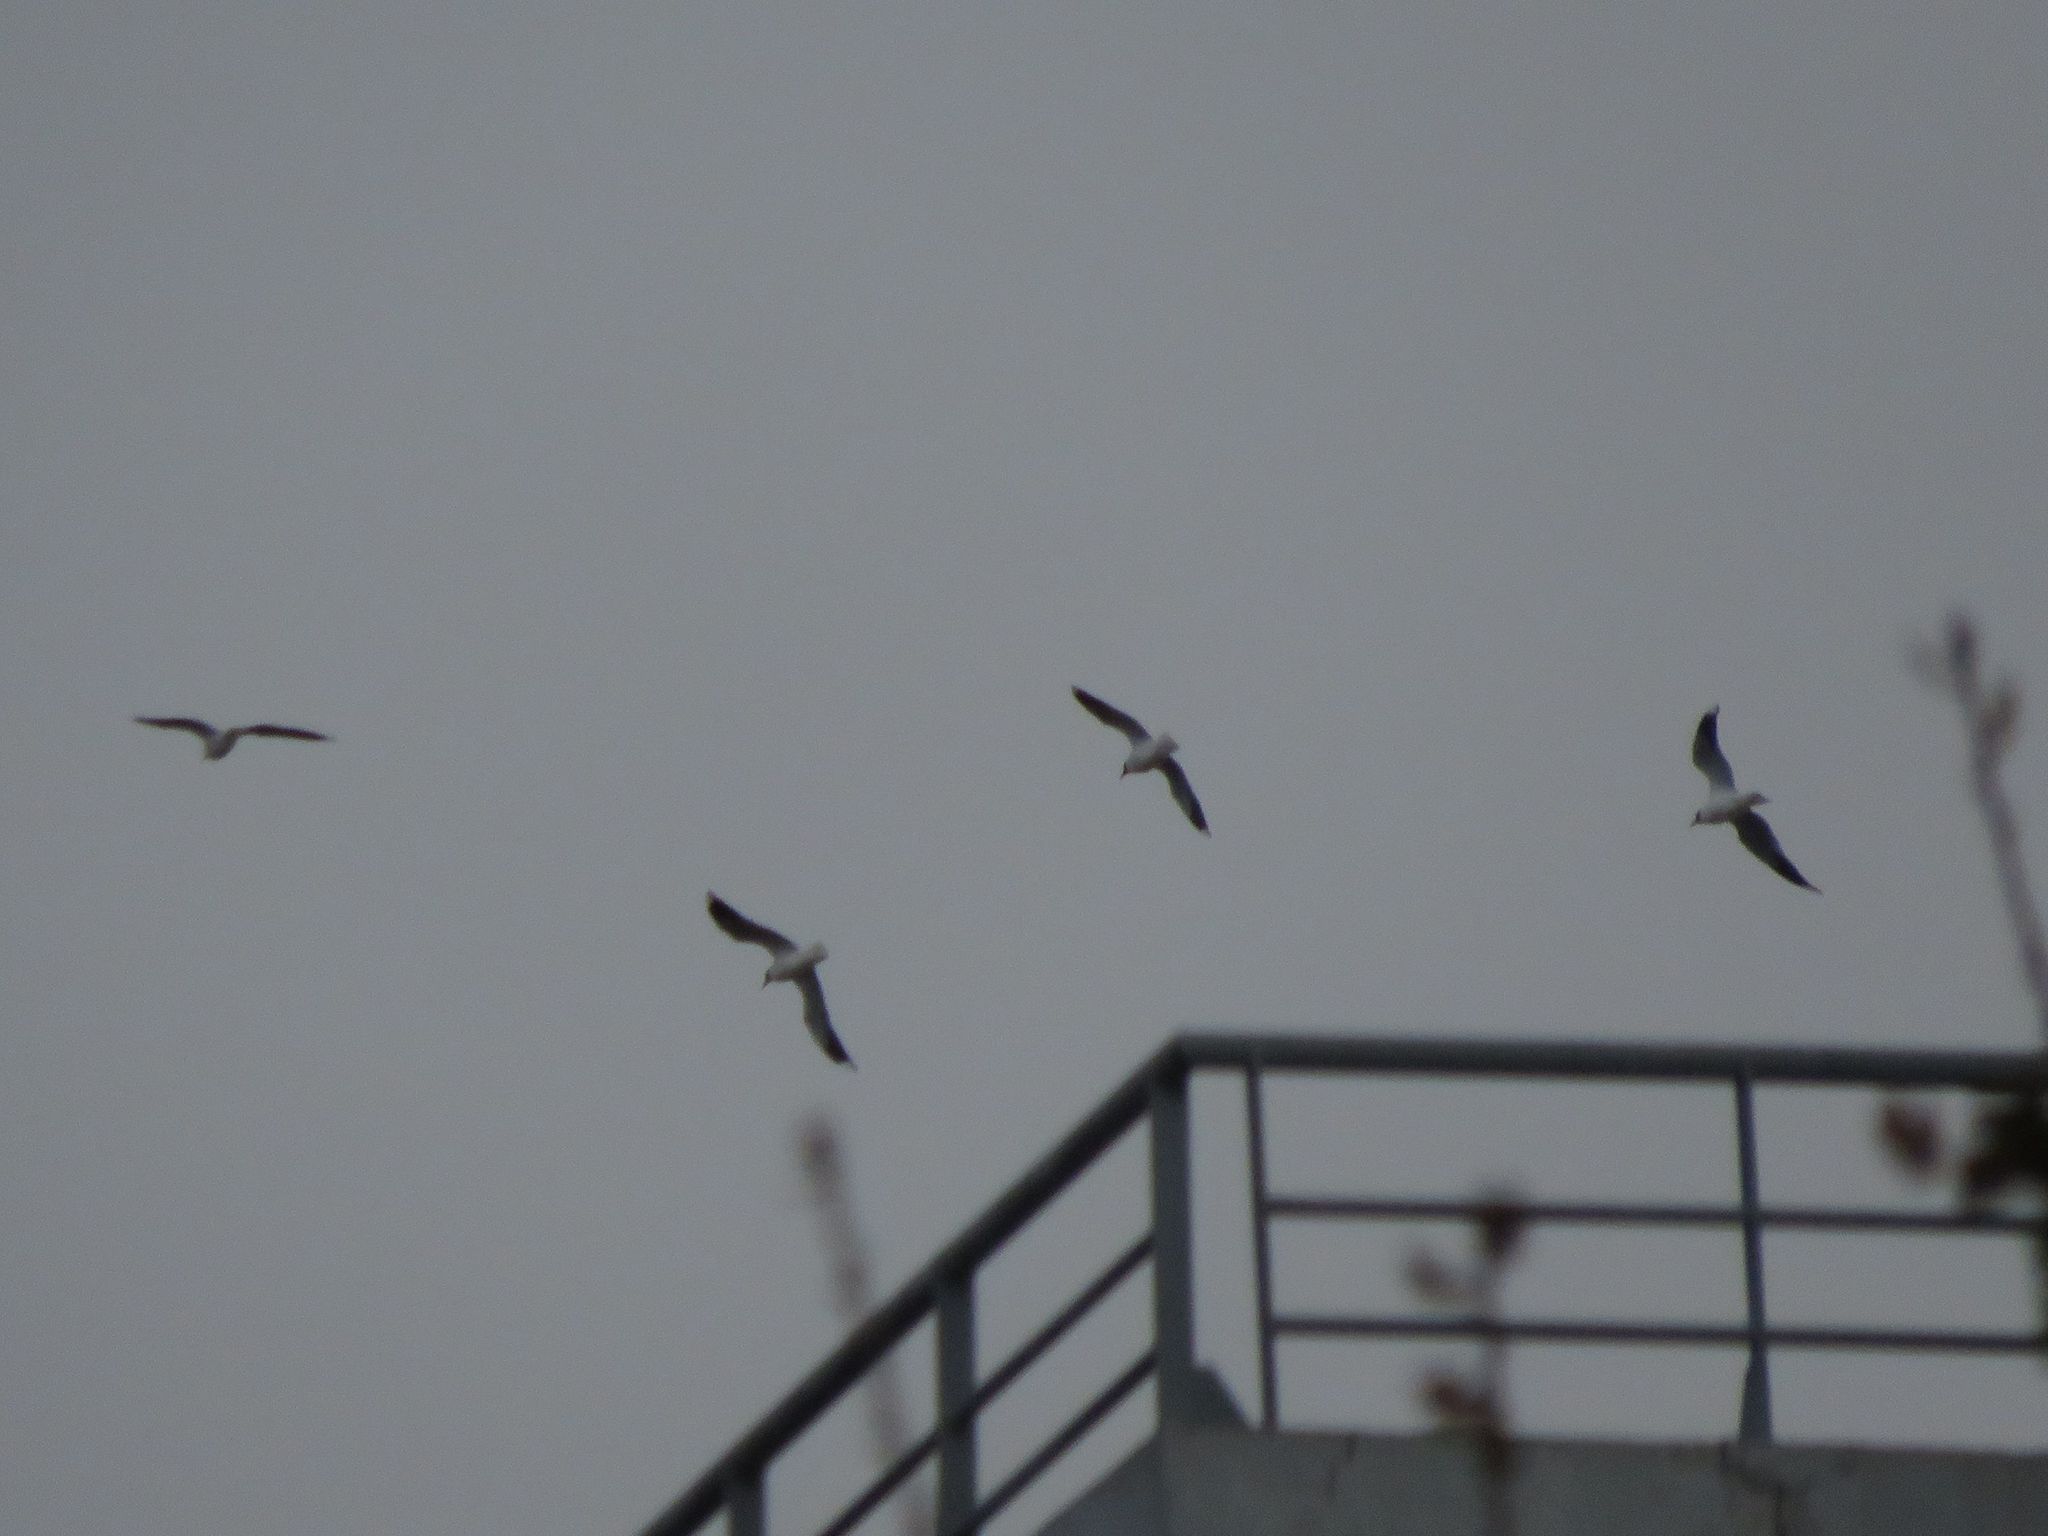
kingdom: Animalia
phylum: Chordata
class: Aves
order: Charadriiformes
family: Laridae
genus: Chroicocephalus
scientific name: Chroicocephalus maculipennis
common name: Brown-hooded gull
